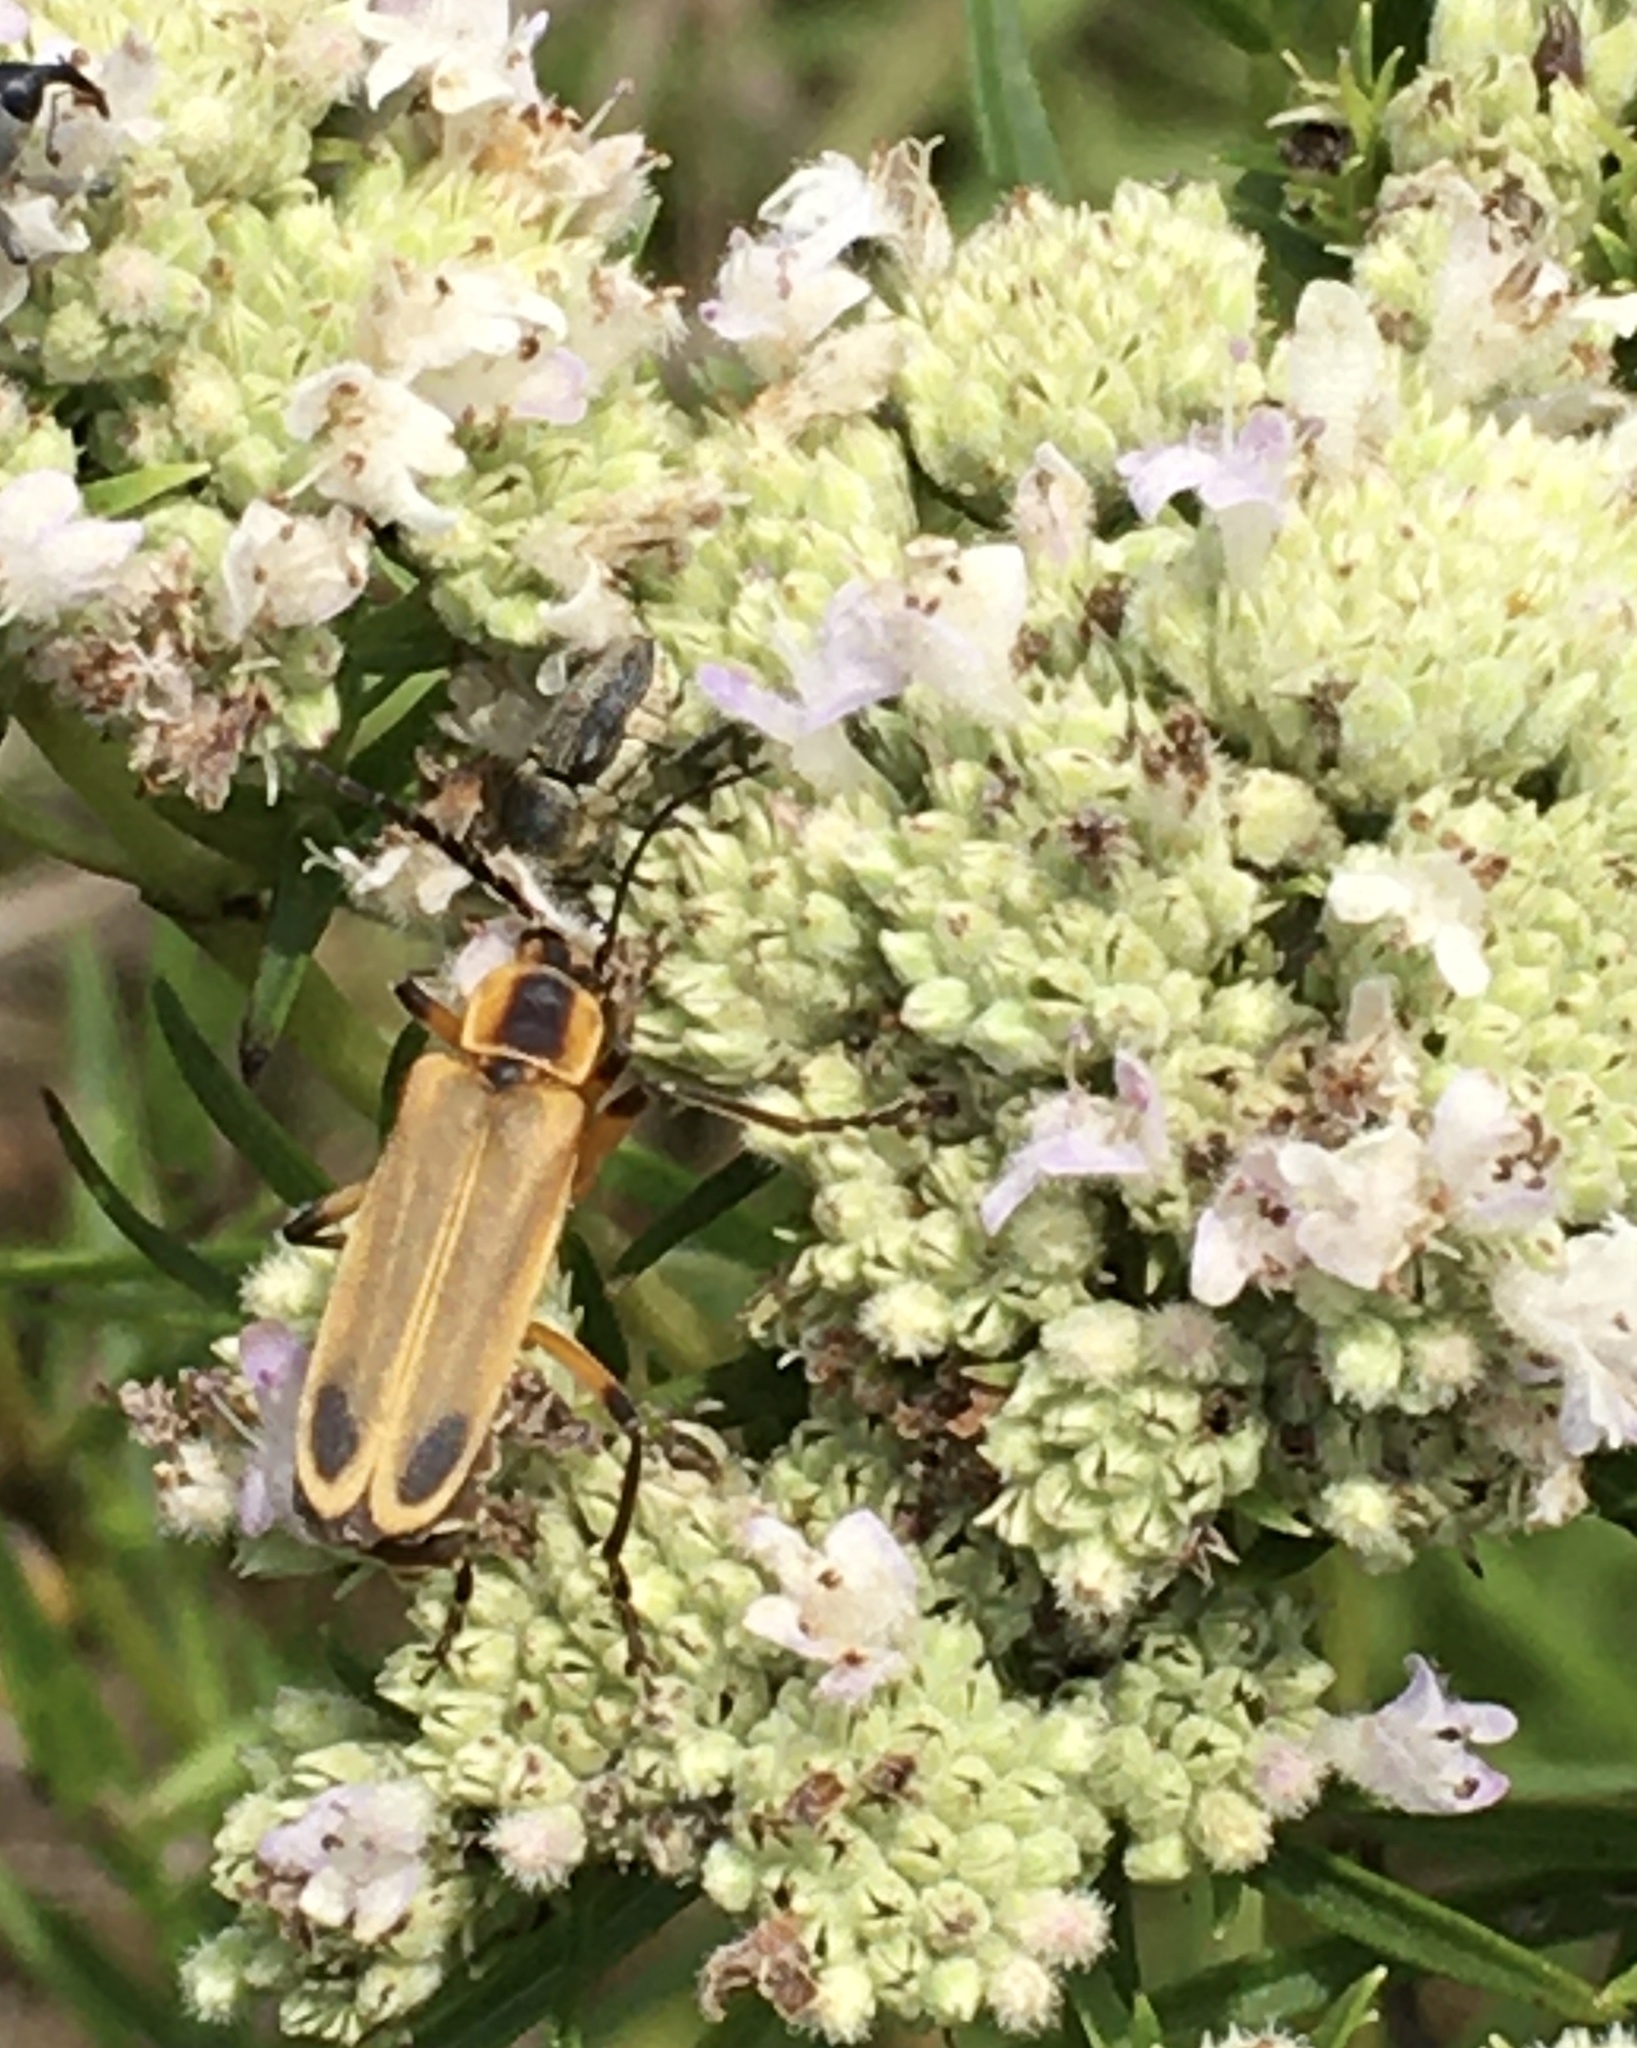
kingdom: Animalia
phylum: Arthropoda
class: Insecta
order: Coleoptera
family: Cantharidae
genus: Chauliognathus
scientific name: Chauliognathus marginatus
